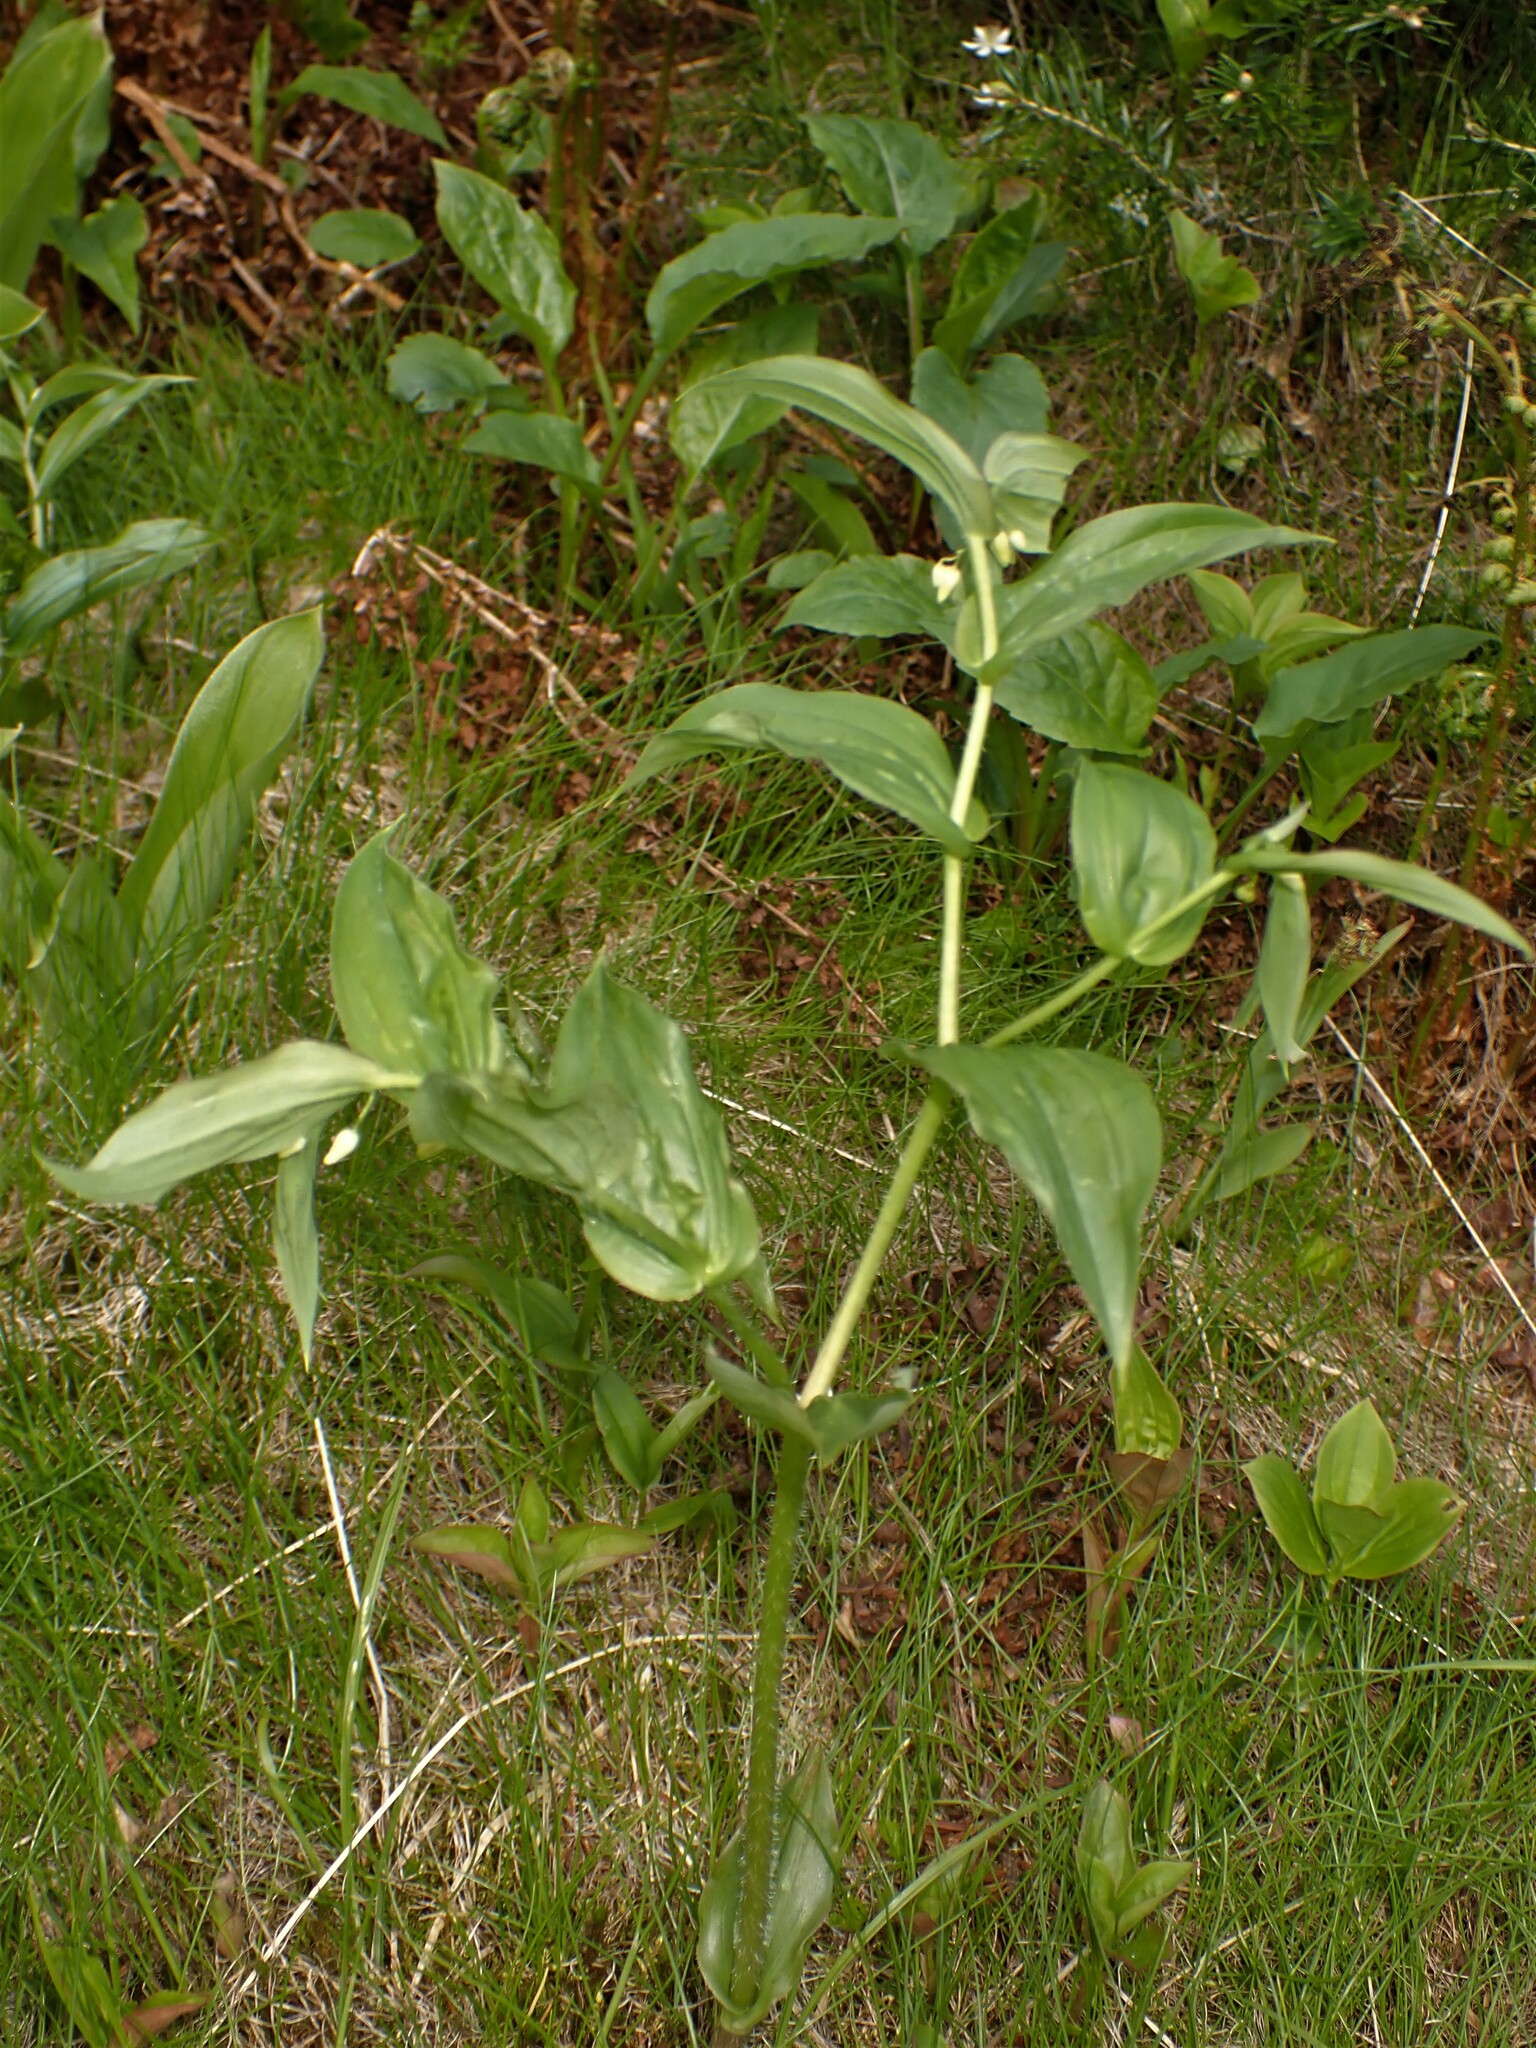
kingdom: Plantae
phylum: Tracheophyta
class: Liliopsida
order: Liliales
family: Liliaceae
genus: Streptopus
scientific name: Streptopus lanceolatus
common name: Rose mandarin
